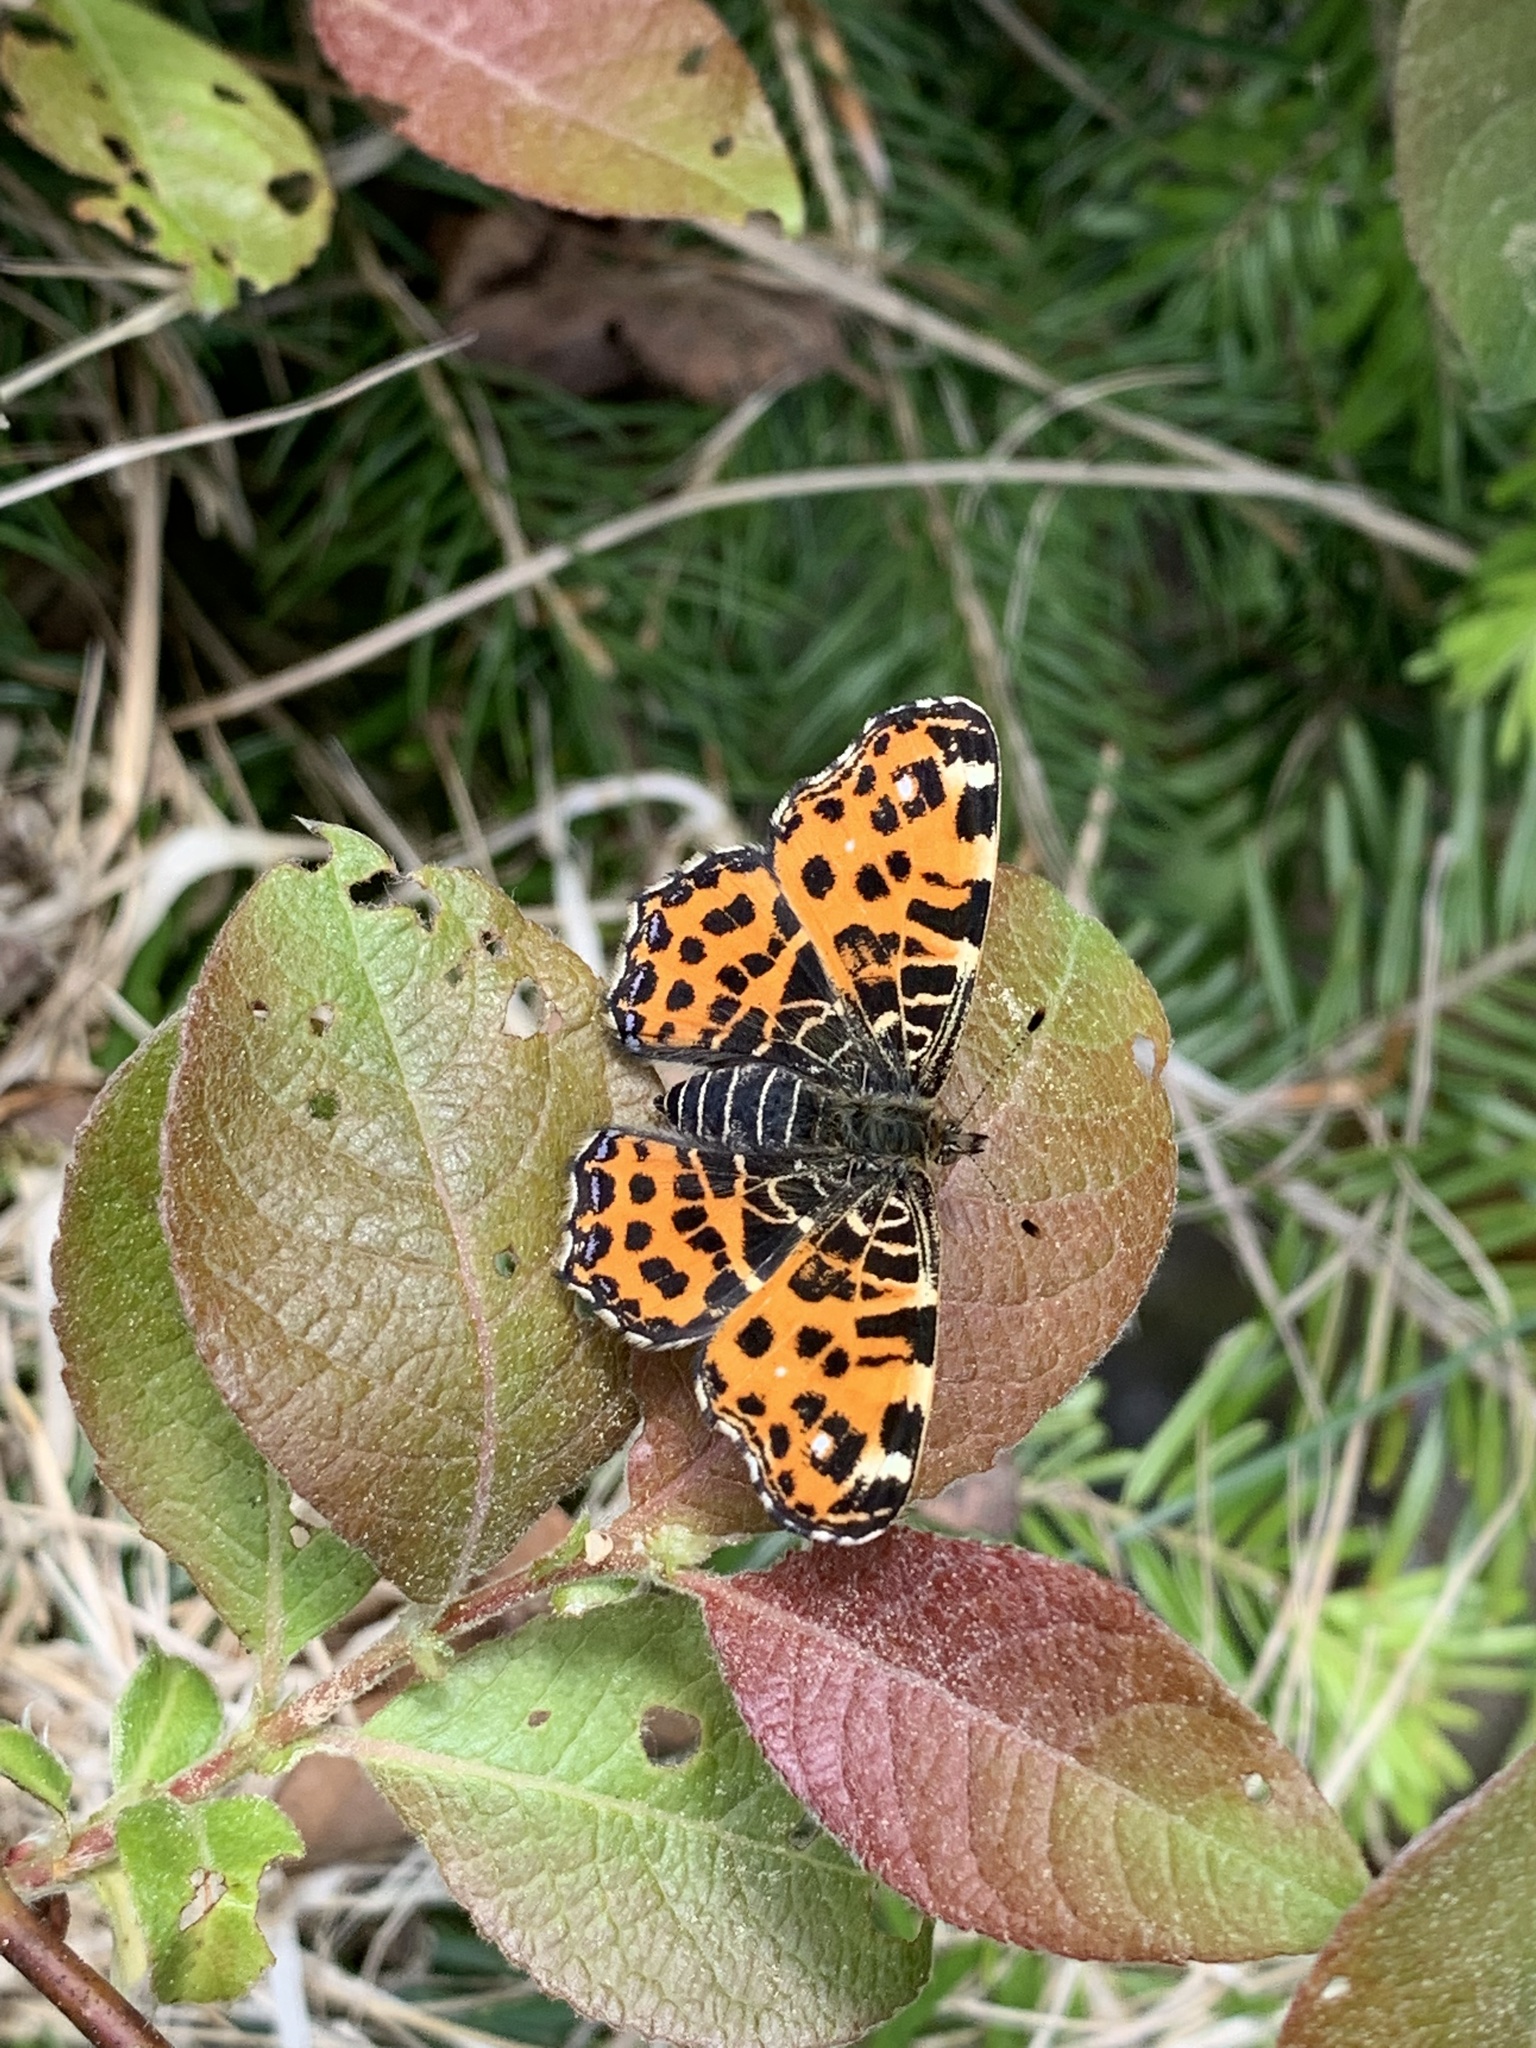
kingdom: Animalia
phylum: Arthropoda
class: Insecta
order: Lepidoptera
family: Nymphalidae
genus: Araschnia
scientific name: Araschnia levana
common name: Map butterfly
